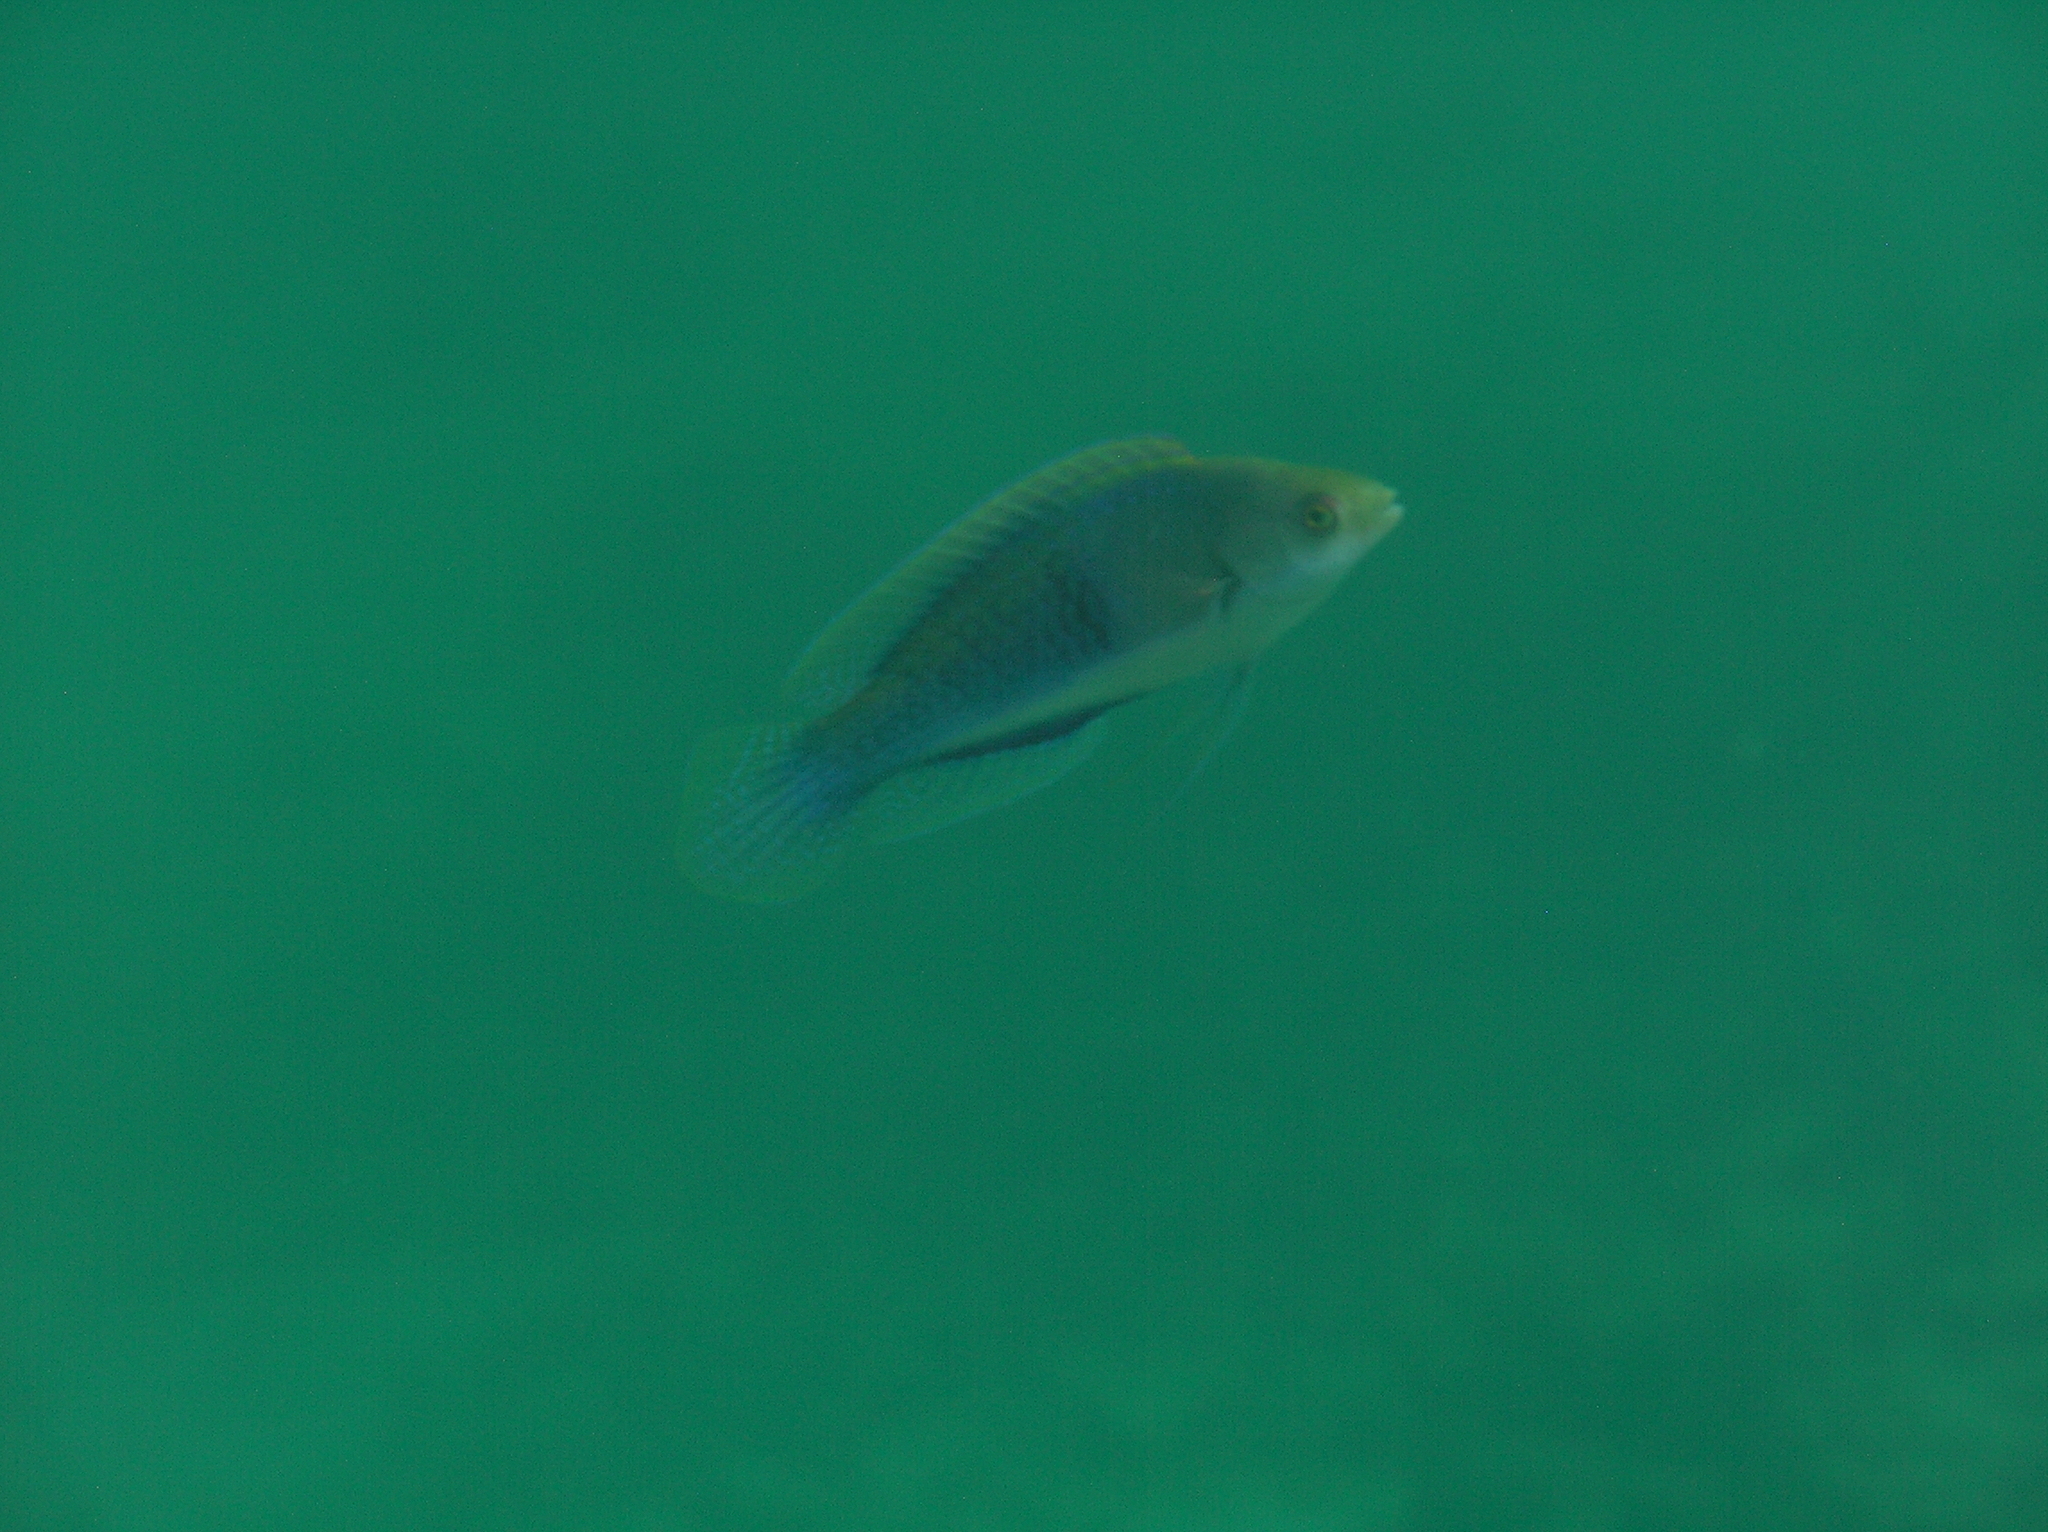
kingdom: Animalia
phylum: Chordata
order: Perciformes
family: Labridae
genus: Cirrhilabrus
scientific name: Cirrhilabrus cyanopleura
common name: Coralline wrasse
